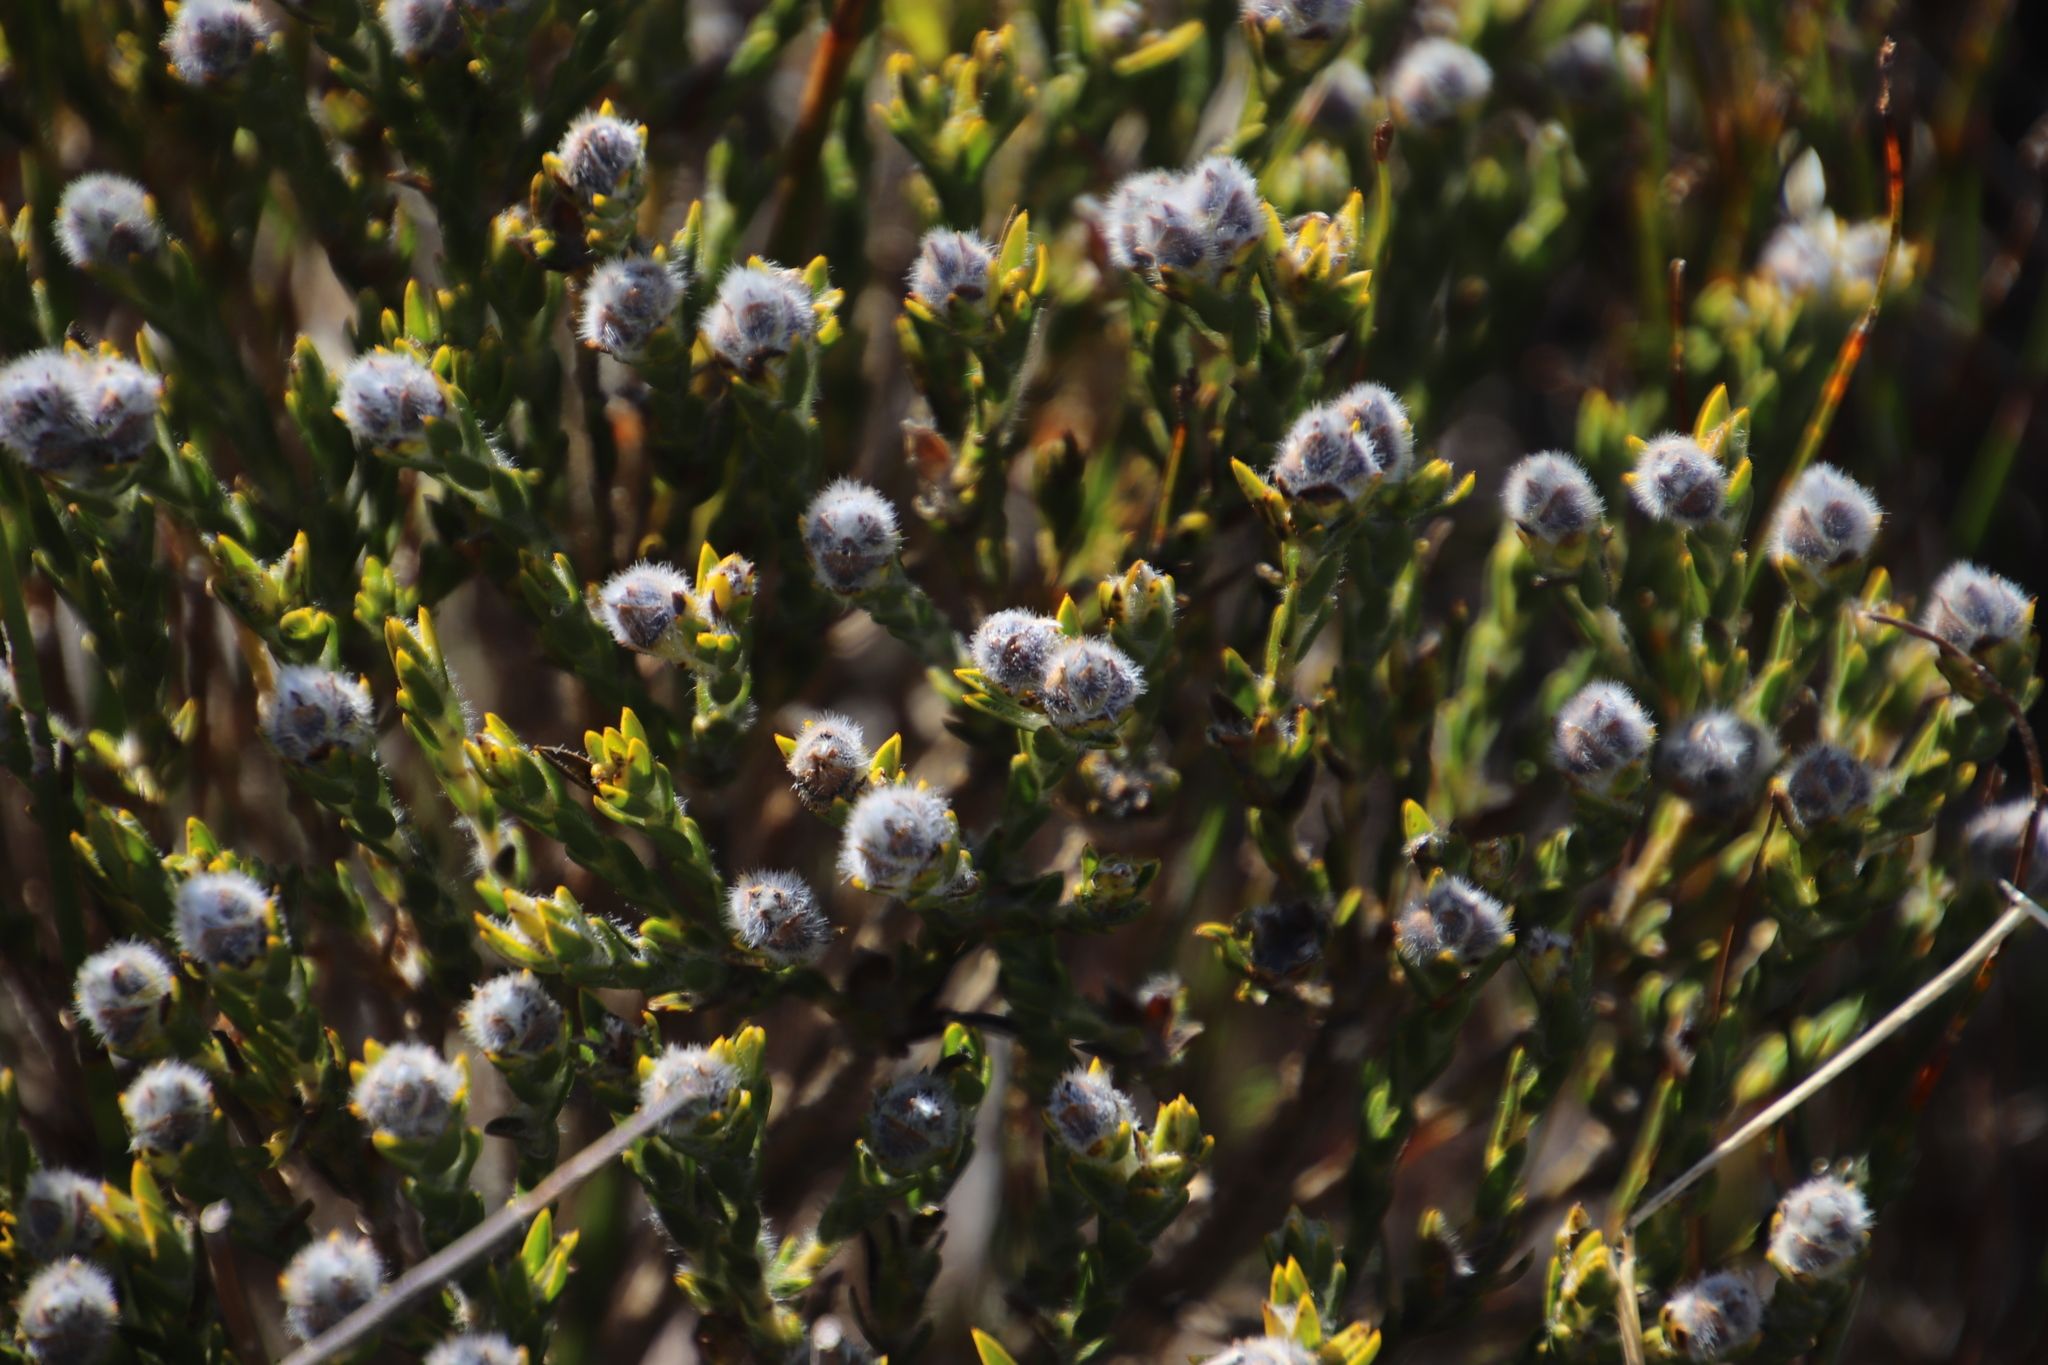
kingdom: Plantae
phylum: Tracheophyta
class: Magnoliopsida
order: Fabales
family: Fabaceae
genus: Liparia
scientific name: Liparia umbellifera
